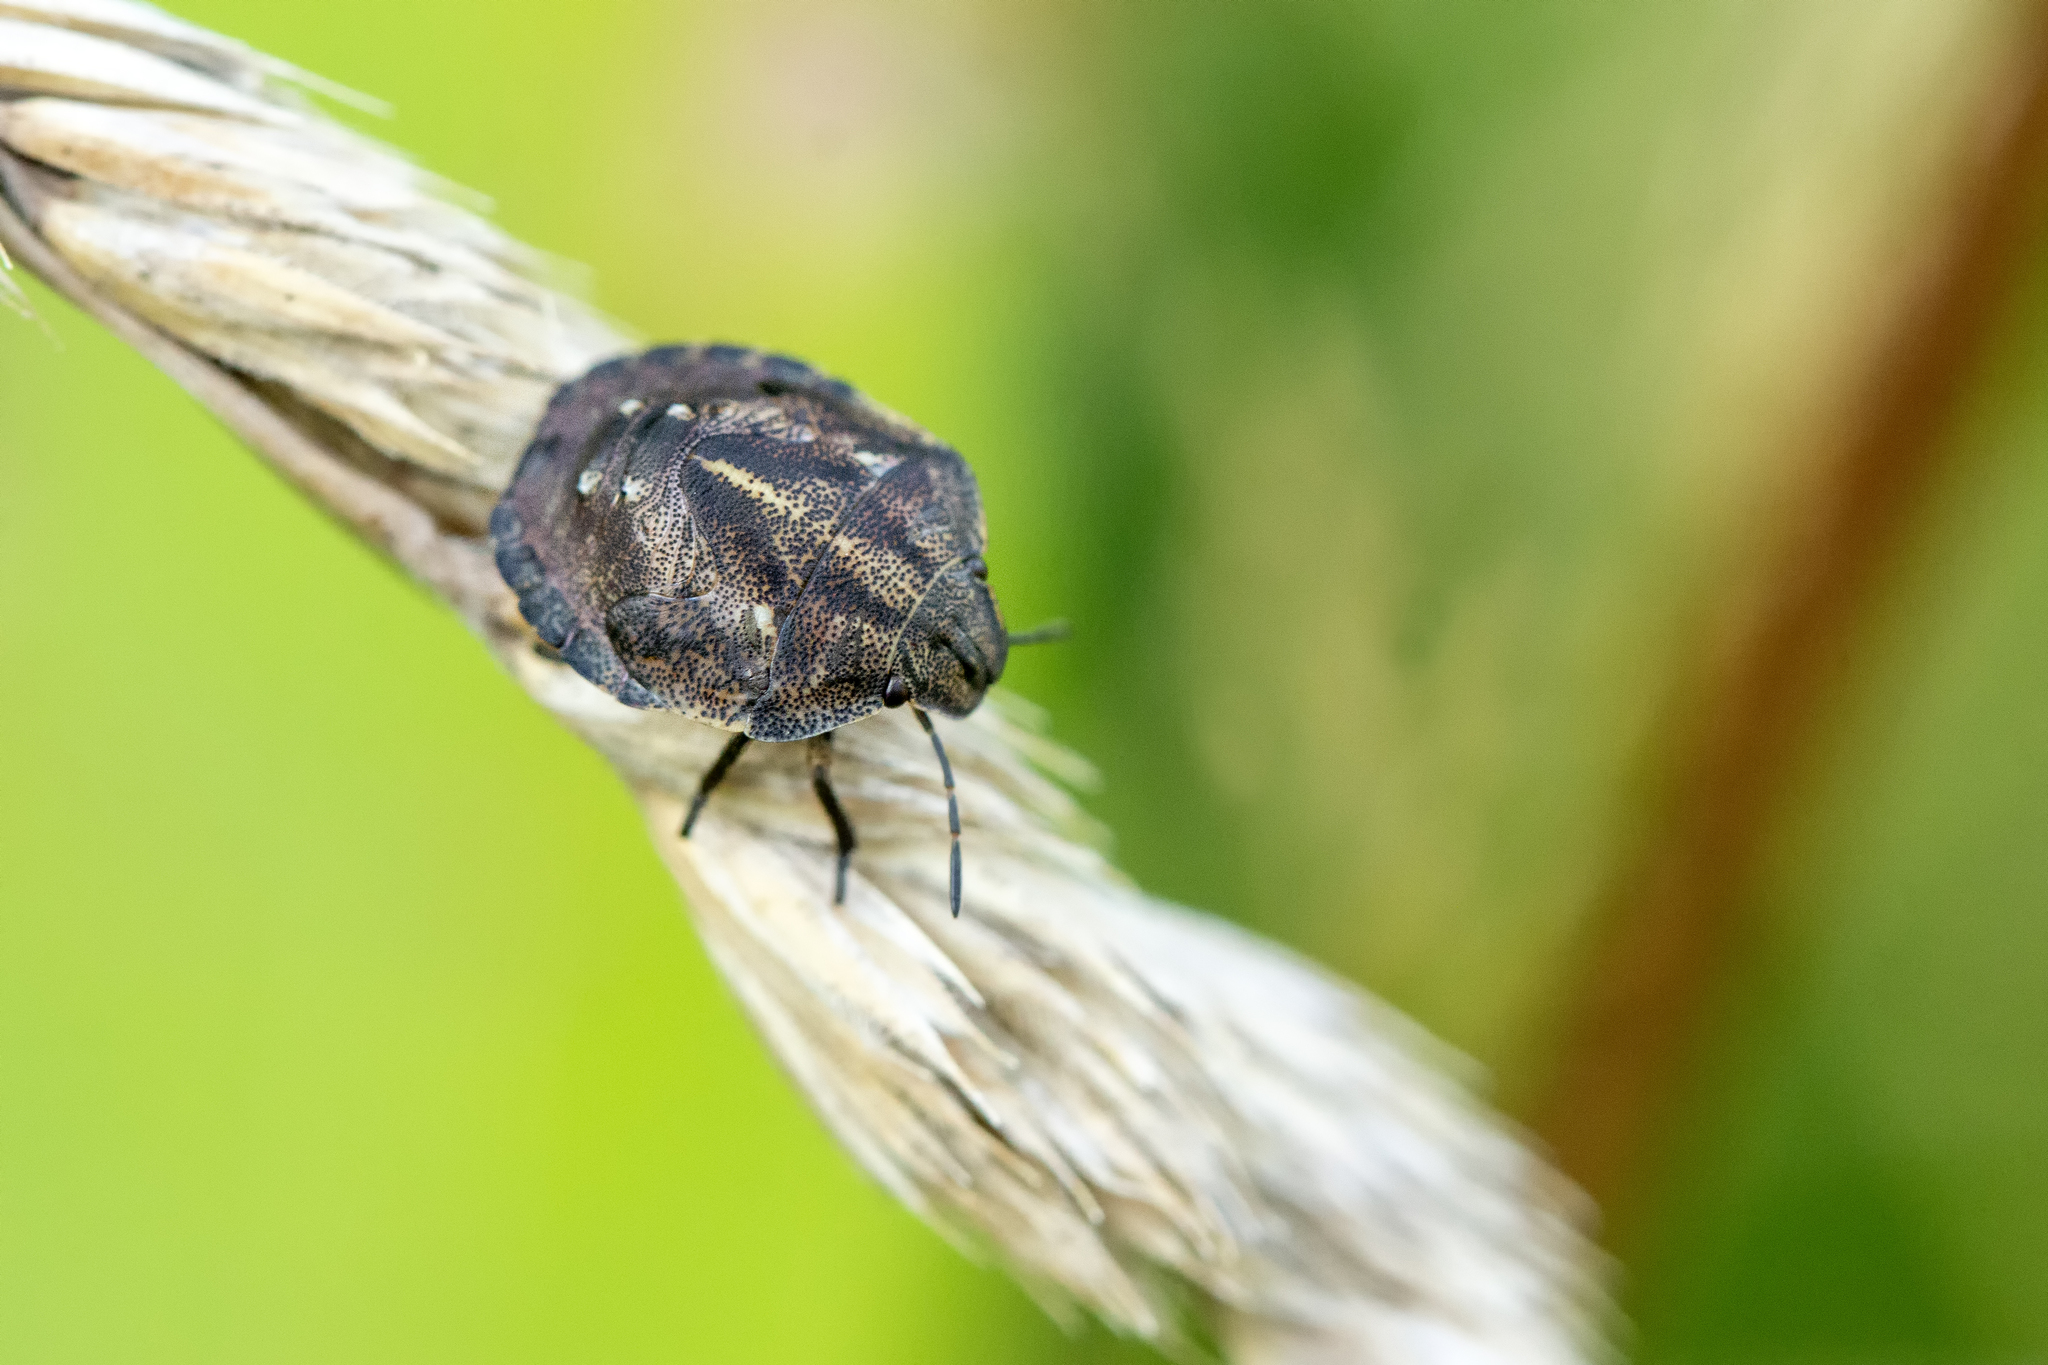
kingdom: Animalia
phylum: Arthropoda
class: Insecta
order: Hemiptera
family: Scutelleridae
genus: Eurygaster
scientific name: Eurygaster testudinaria
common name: Tortoise bug
